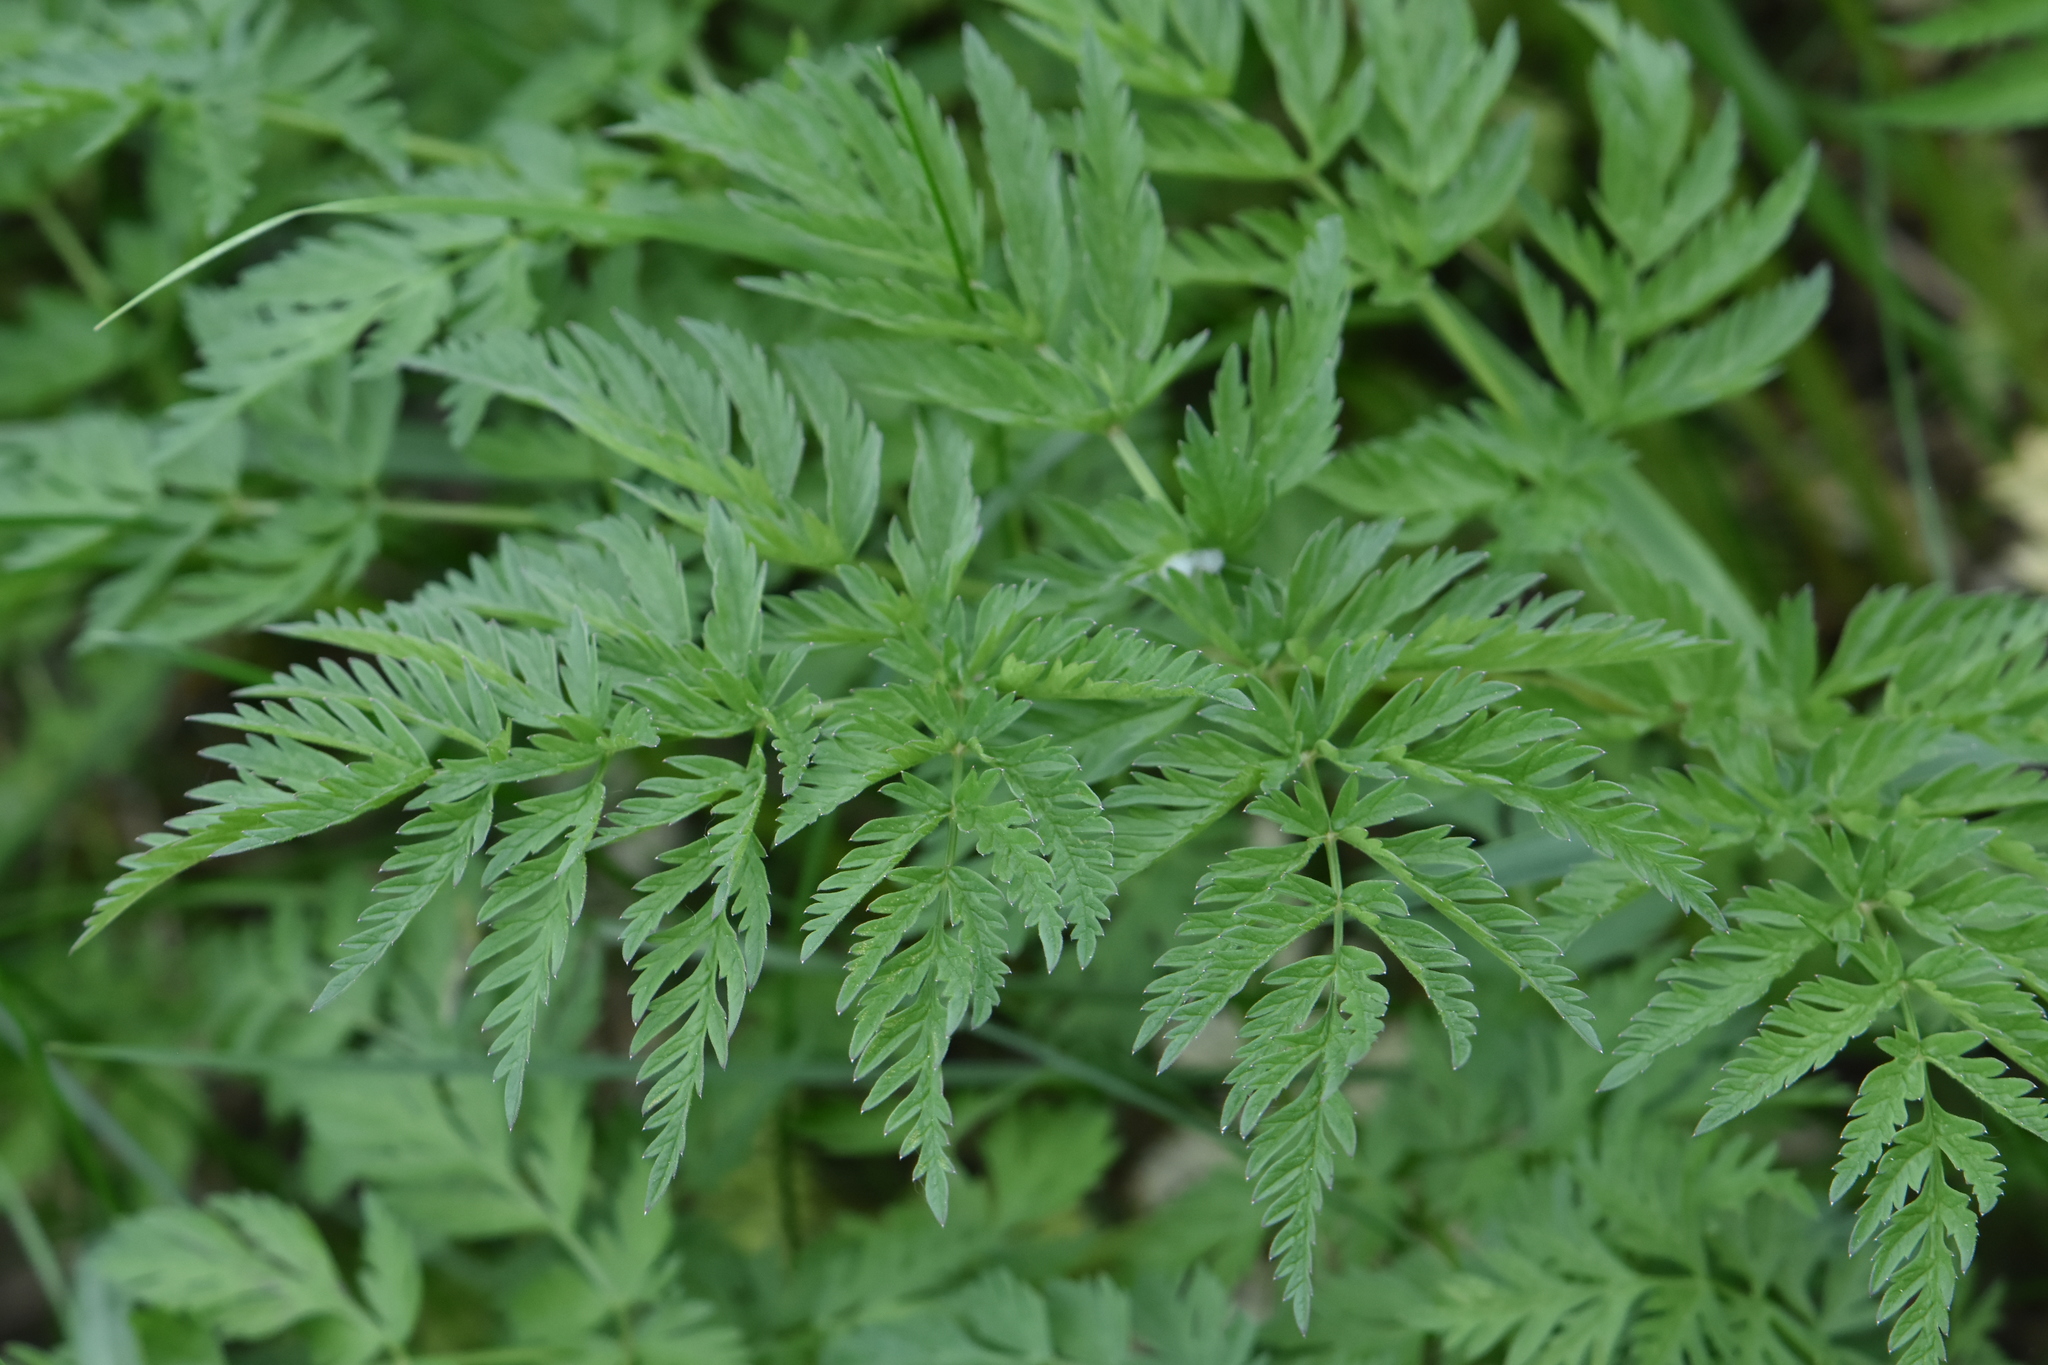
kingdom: Plantae
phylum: Tracheophyta
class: Magnoliopsida
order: Apiales
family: Apiaceae
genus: Anthriscus
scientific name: Anthriscus sylvestris
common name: Cow parsley
